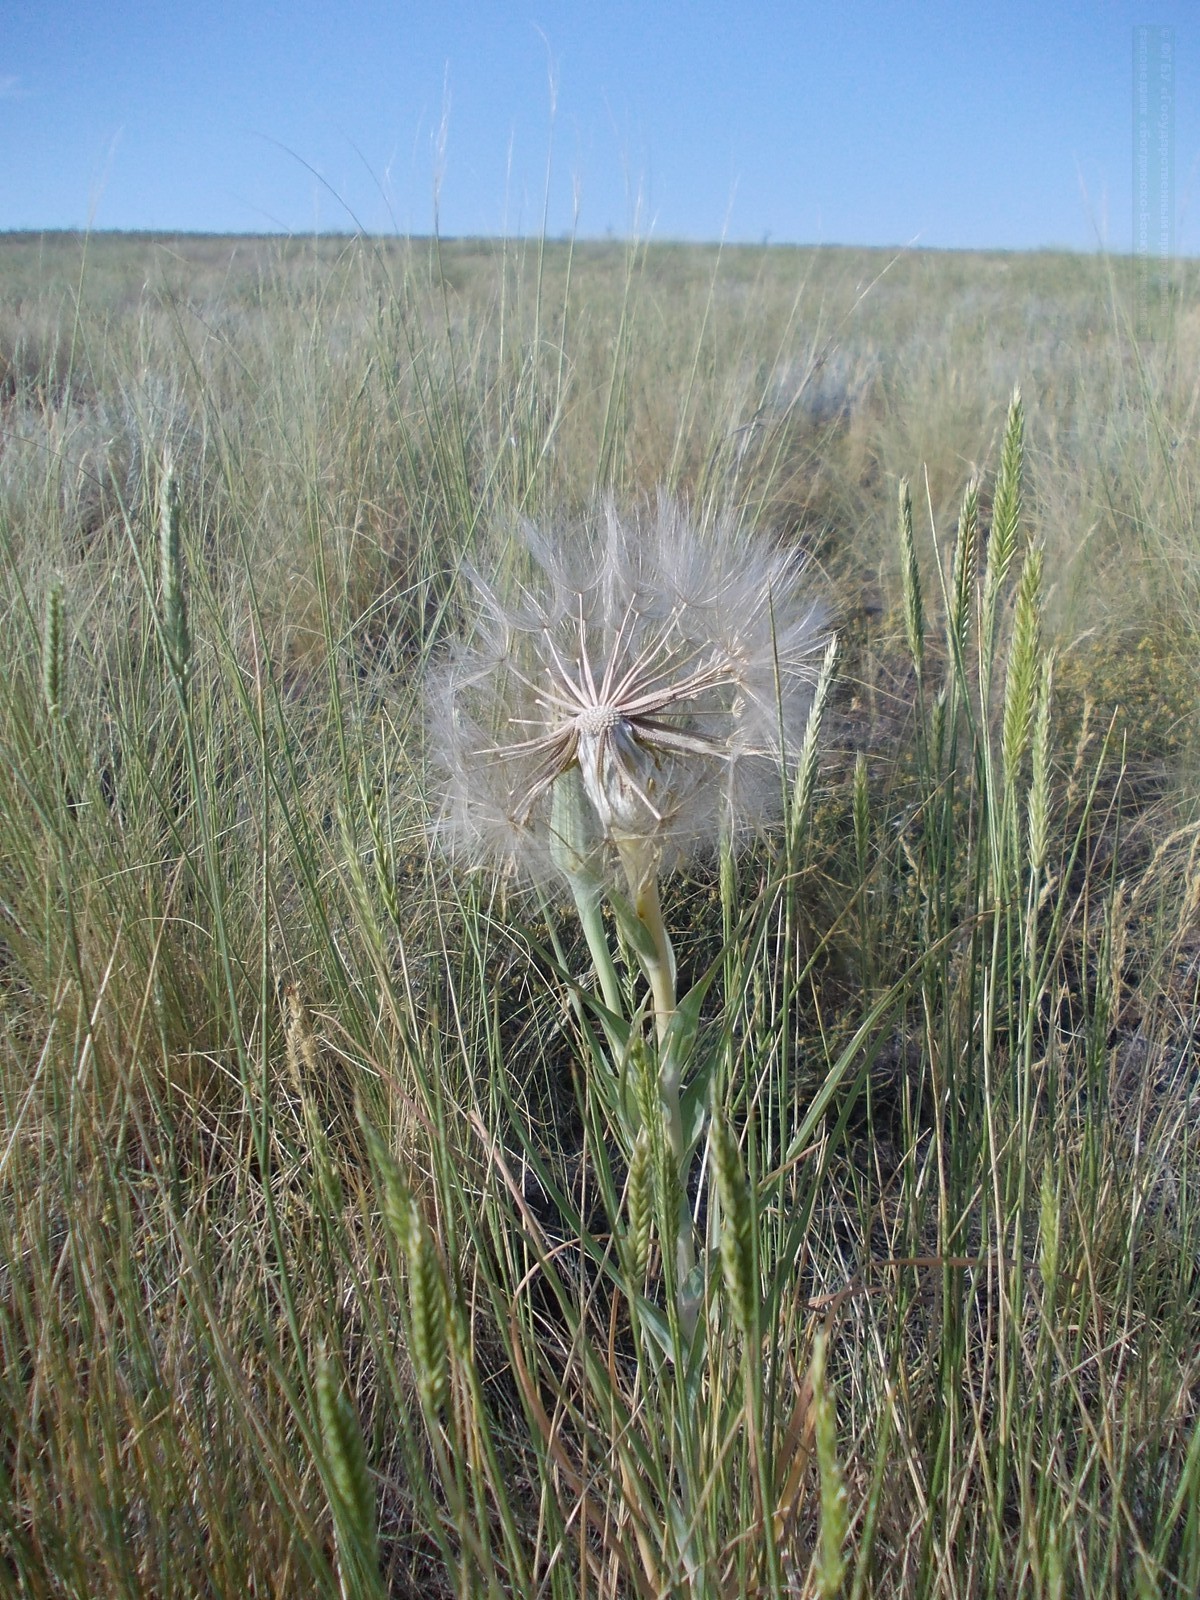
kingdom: Plantae
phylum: Tracheophyta
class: Magnoliopsida
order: Asterales
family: Asteraceae
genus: Tragopogon
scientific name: Tragopogon dubius
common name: Yellow salsify
